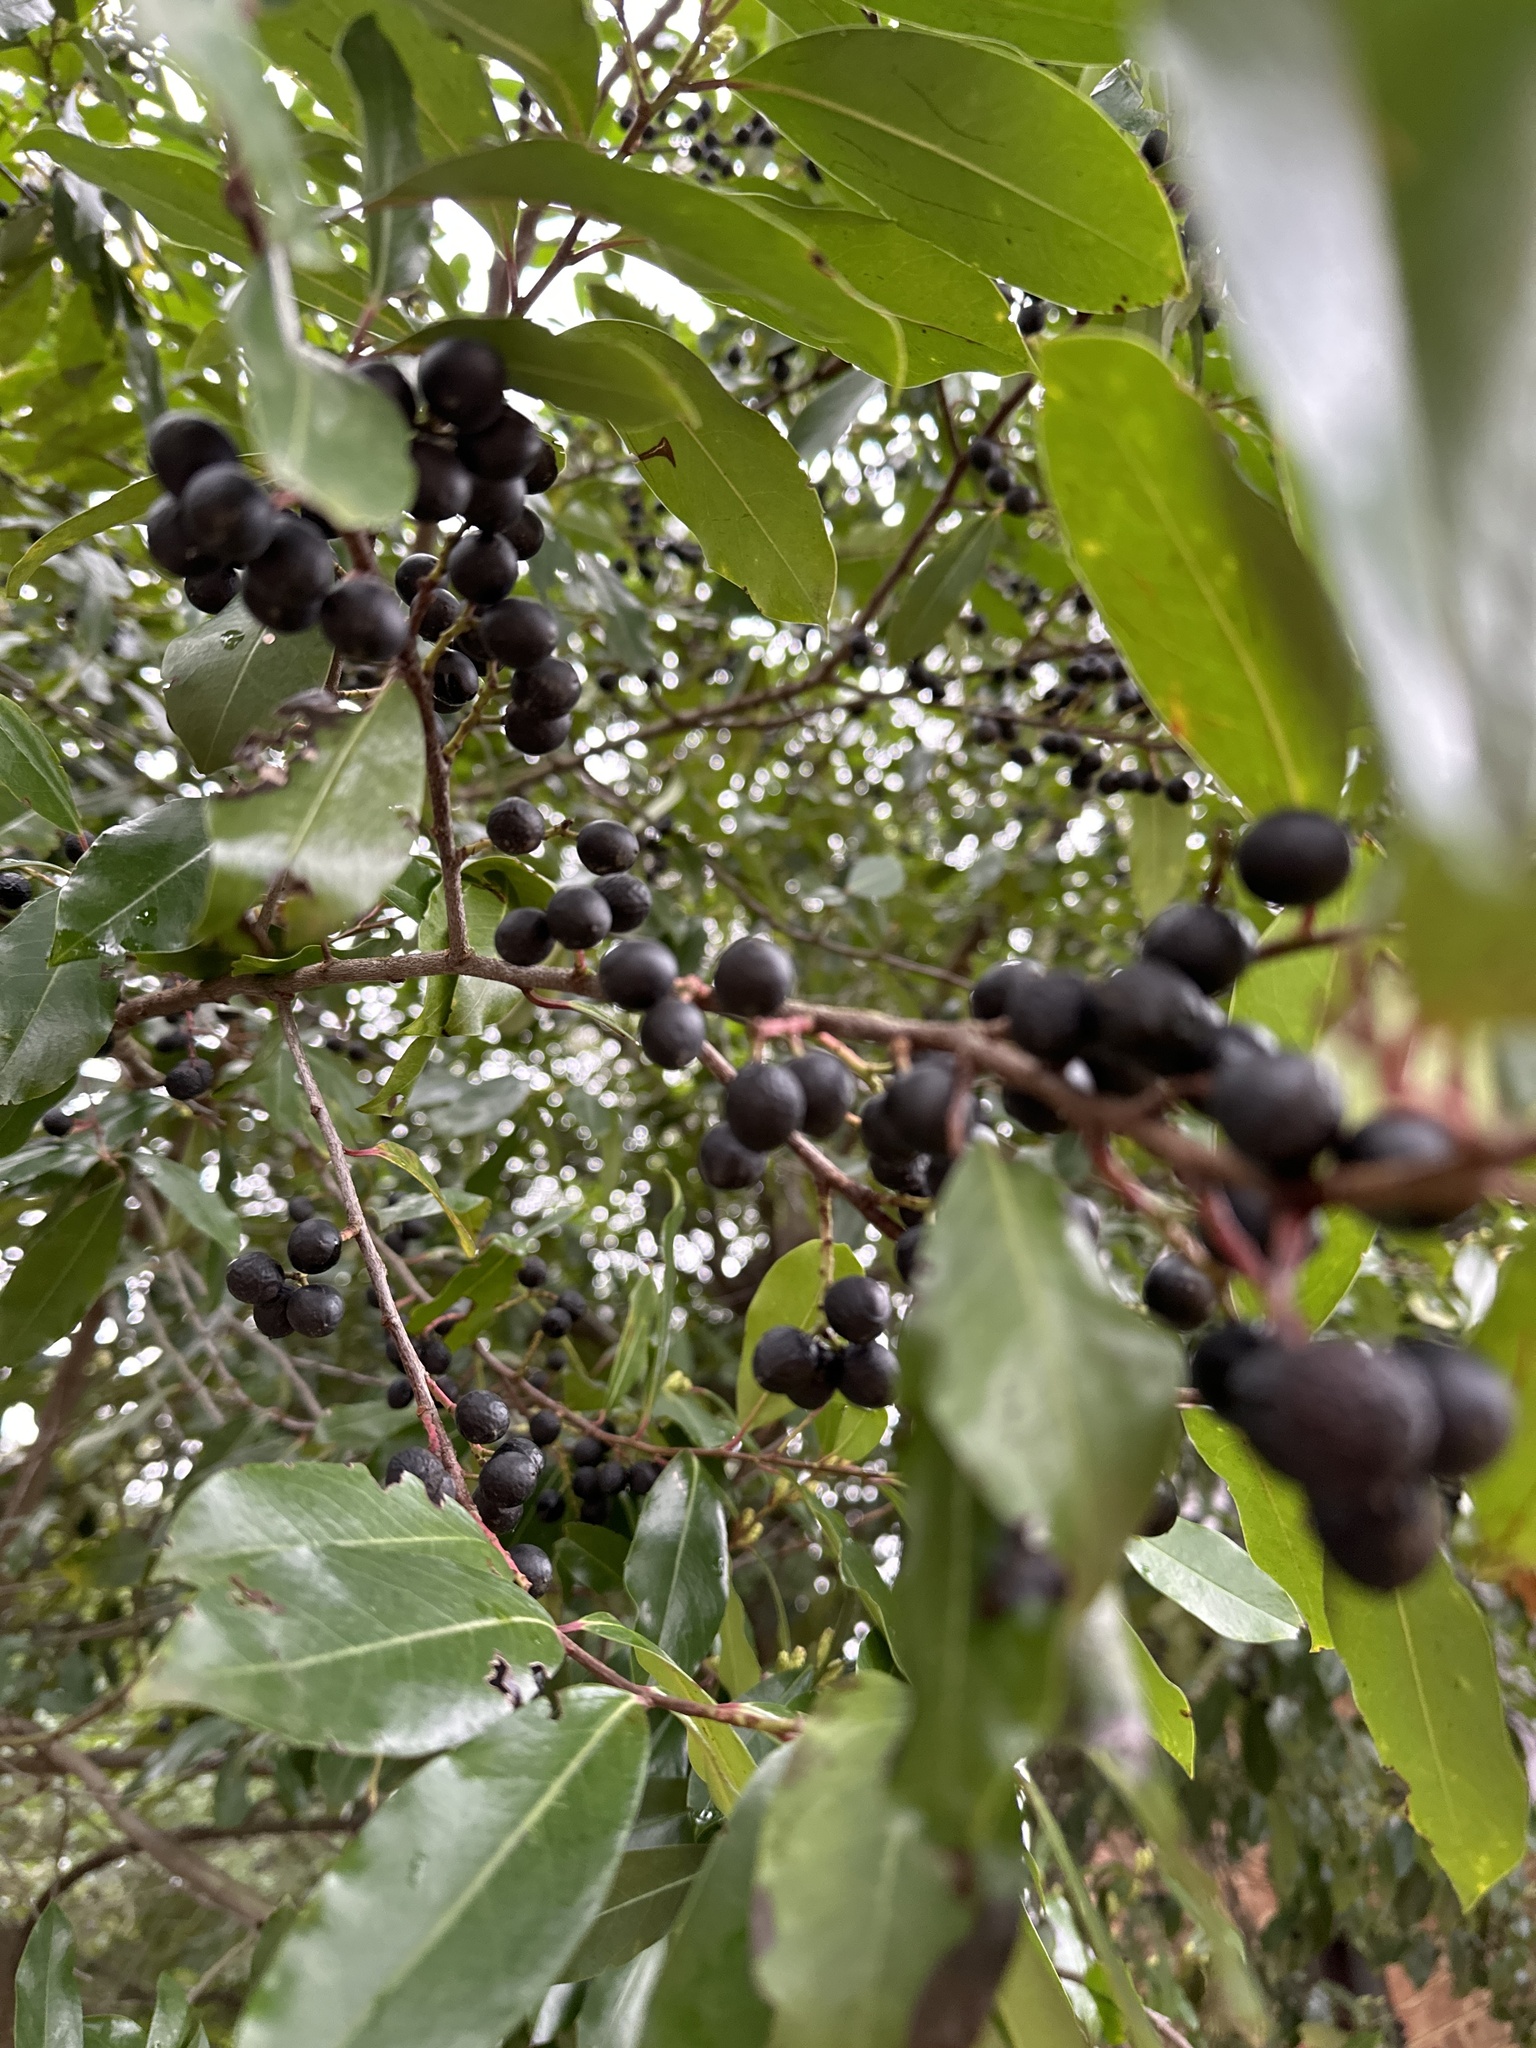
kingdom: Plantae
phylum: Tracheophyta
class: Magnoliopsida
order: Rosales
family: Rosaceae
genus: Prunus
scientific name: Prunus caroliniana
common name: Carolina laurel cherry
